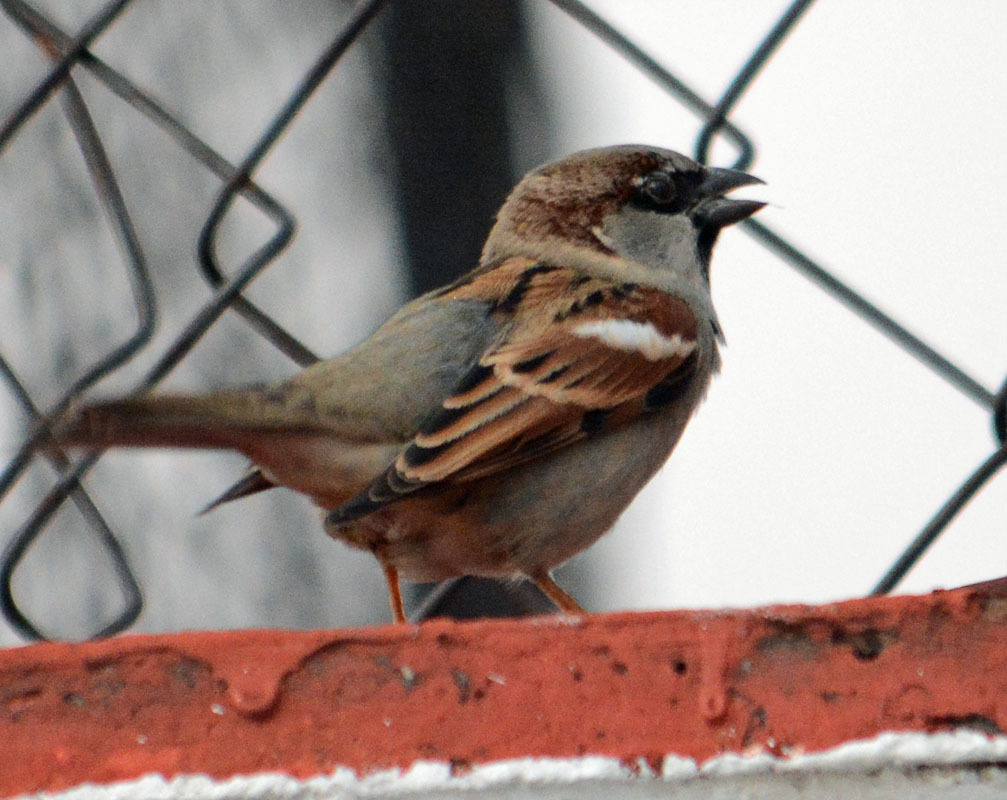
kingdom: Animalia
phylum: Chordata
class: Aves
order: Passeriformes
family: Passeridae
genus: Passer
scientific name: Passer domesticus
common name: House sparrow
